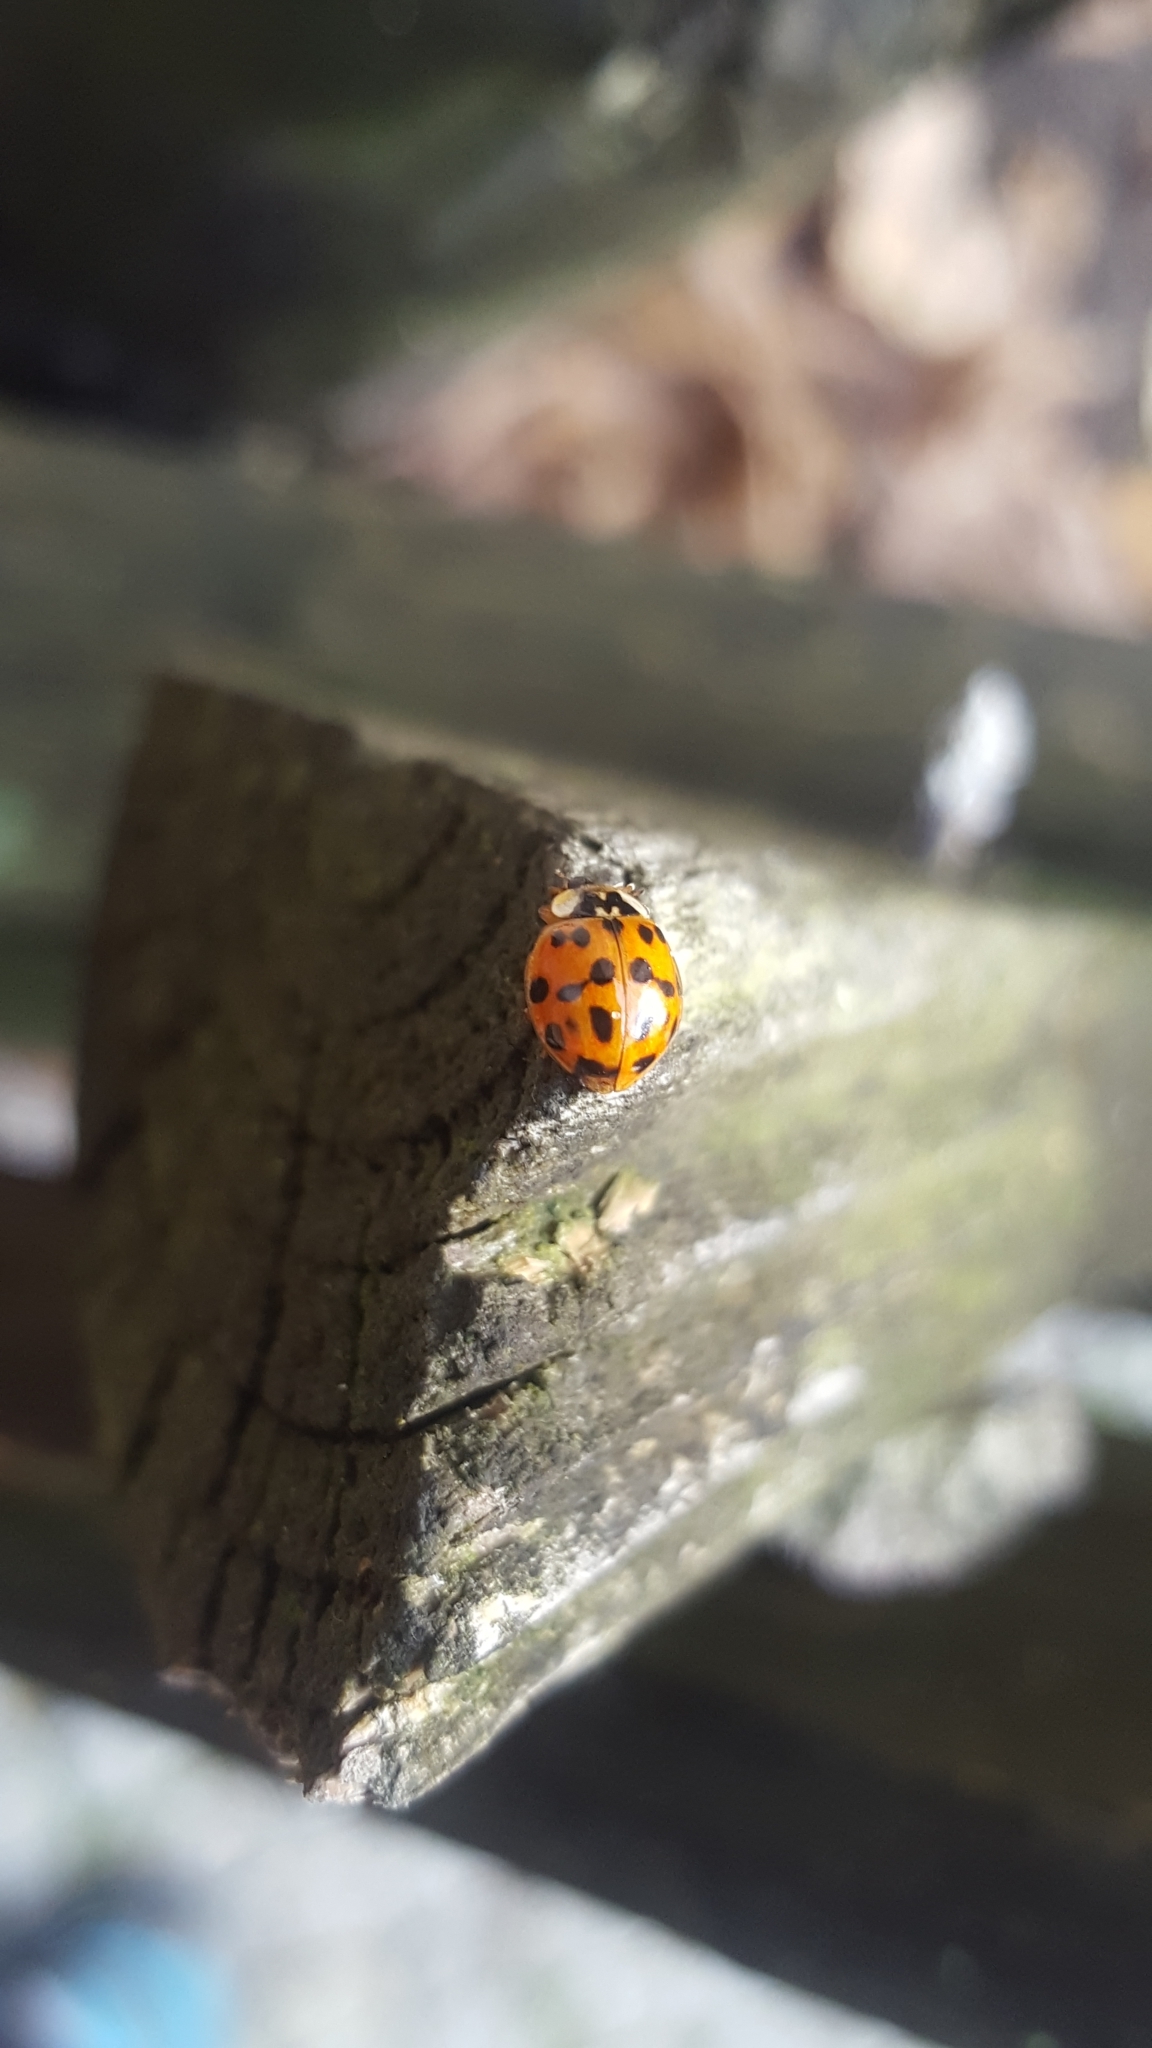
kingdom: Animalia
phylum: Arthropoda
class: Insecta
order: Coleoptera
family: Coccinellidae
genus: Harmonia
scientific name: Harmonia axyridis
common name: Harlequin ladybird
